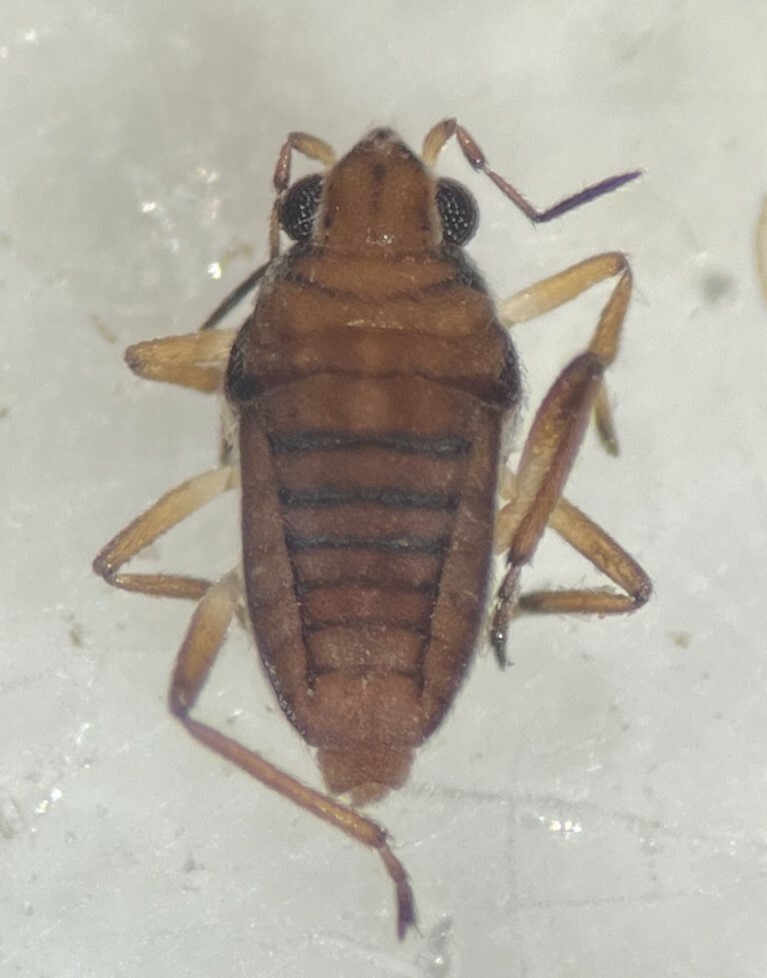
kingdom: Animalia
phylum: Arthropoda
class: Insecta
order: Hemiptera
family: Veliidae
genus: Microvelia
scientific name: Microvelia hinei
